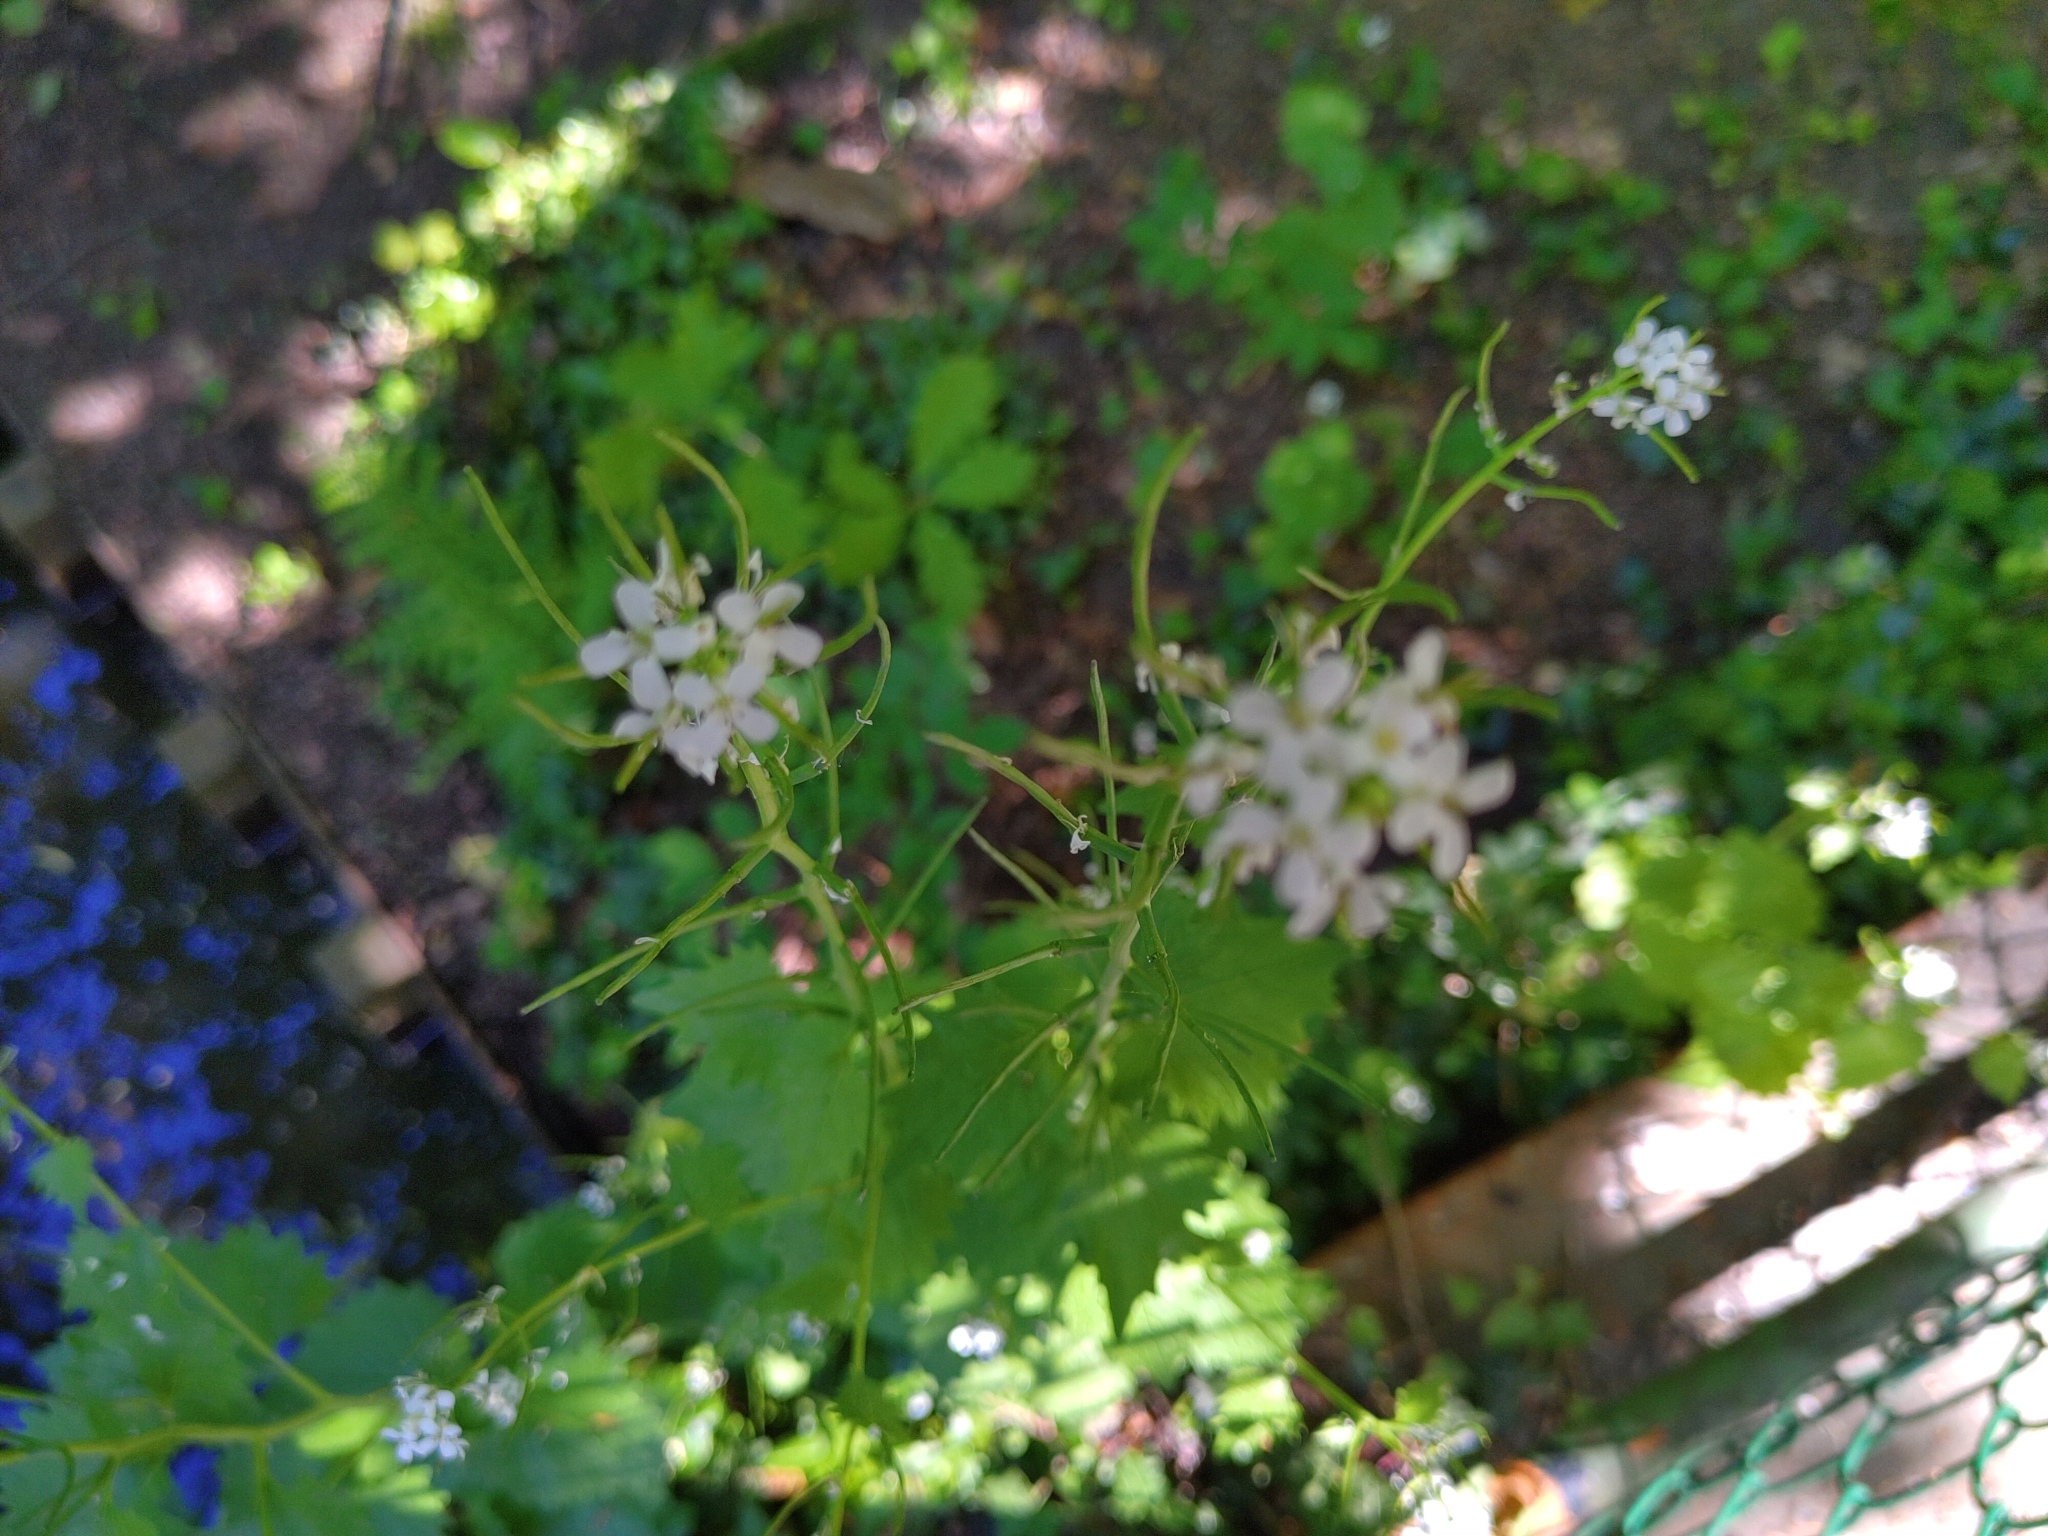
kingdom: Plantae
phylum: Tracheophyta
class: Magnoliopsida
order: Brassicales
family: Brassicaceae
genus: Alliaria
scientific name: Alliaria petiolata
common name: Garlic mustard
